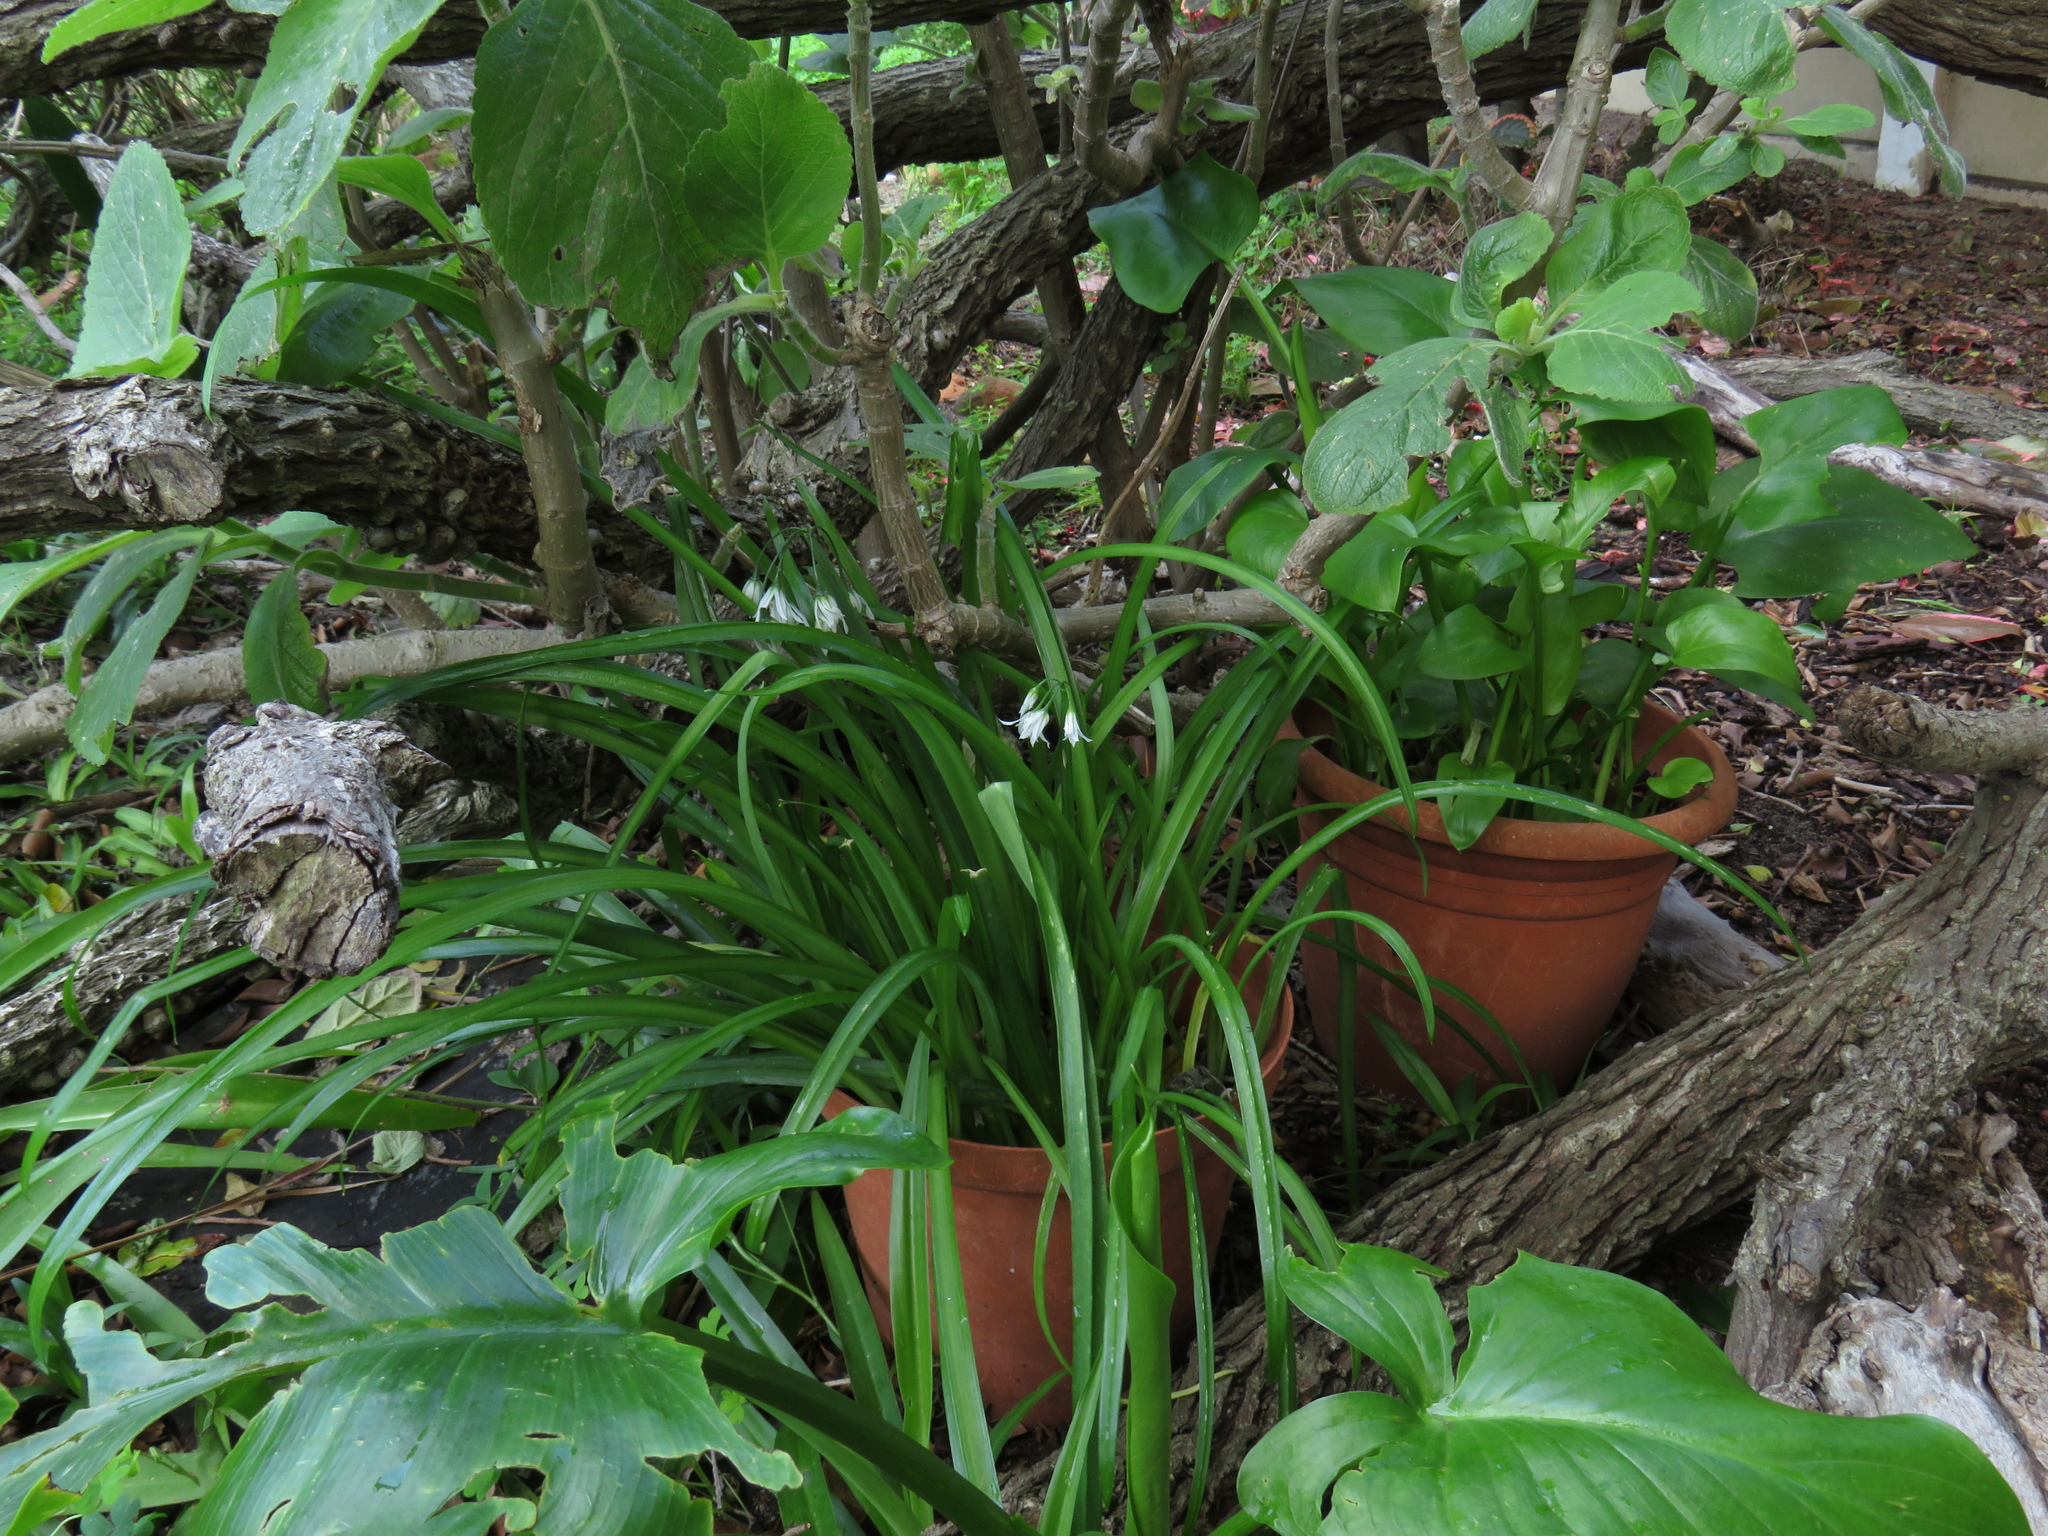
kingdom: Plantae
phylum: Tracheophyta
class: Liliopsida
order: Asparagales
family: Amaryllidaceae
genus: Allium
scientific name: Allium triquetrum
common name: Three-cornered garlic
